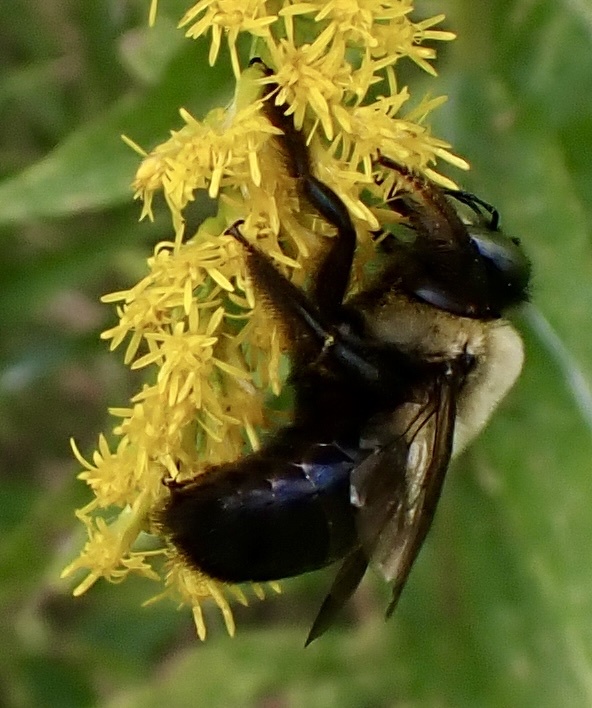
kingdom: Animalia
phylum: Arthropoda
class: Insecta
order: Hymenoptera
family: Apidae
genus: Xylocopa
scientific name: Xylocopa virginica
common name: Carpenter bee
